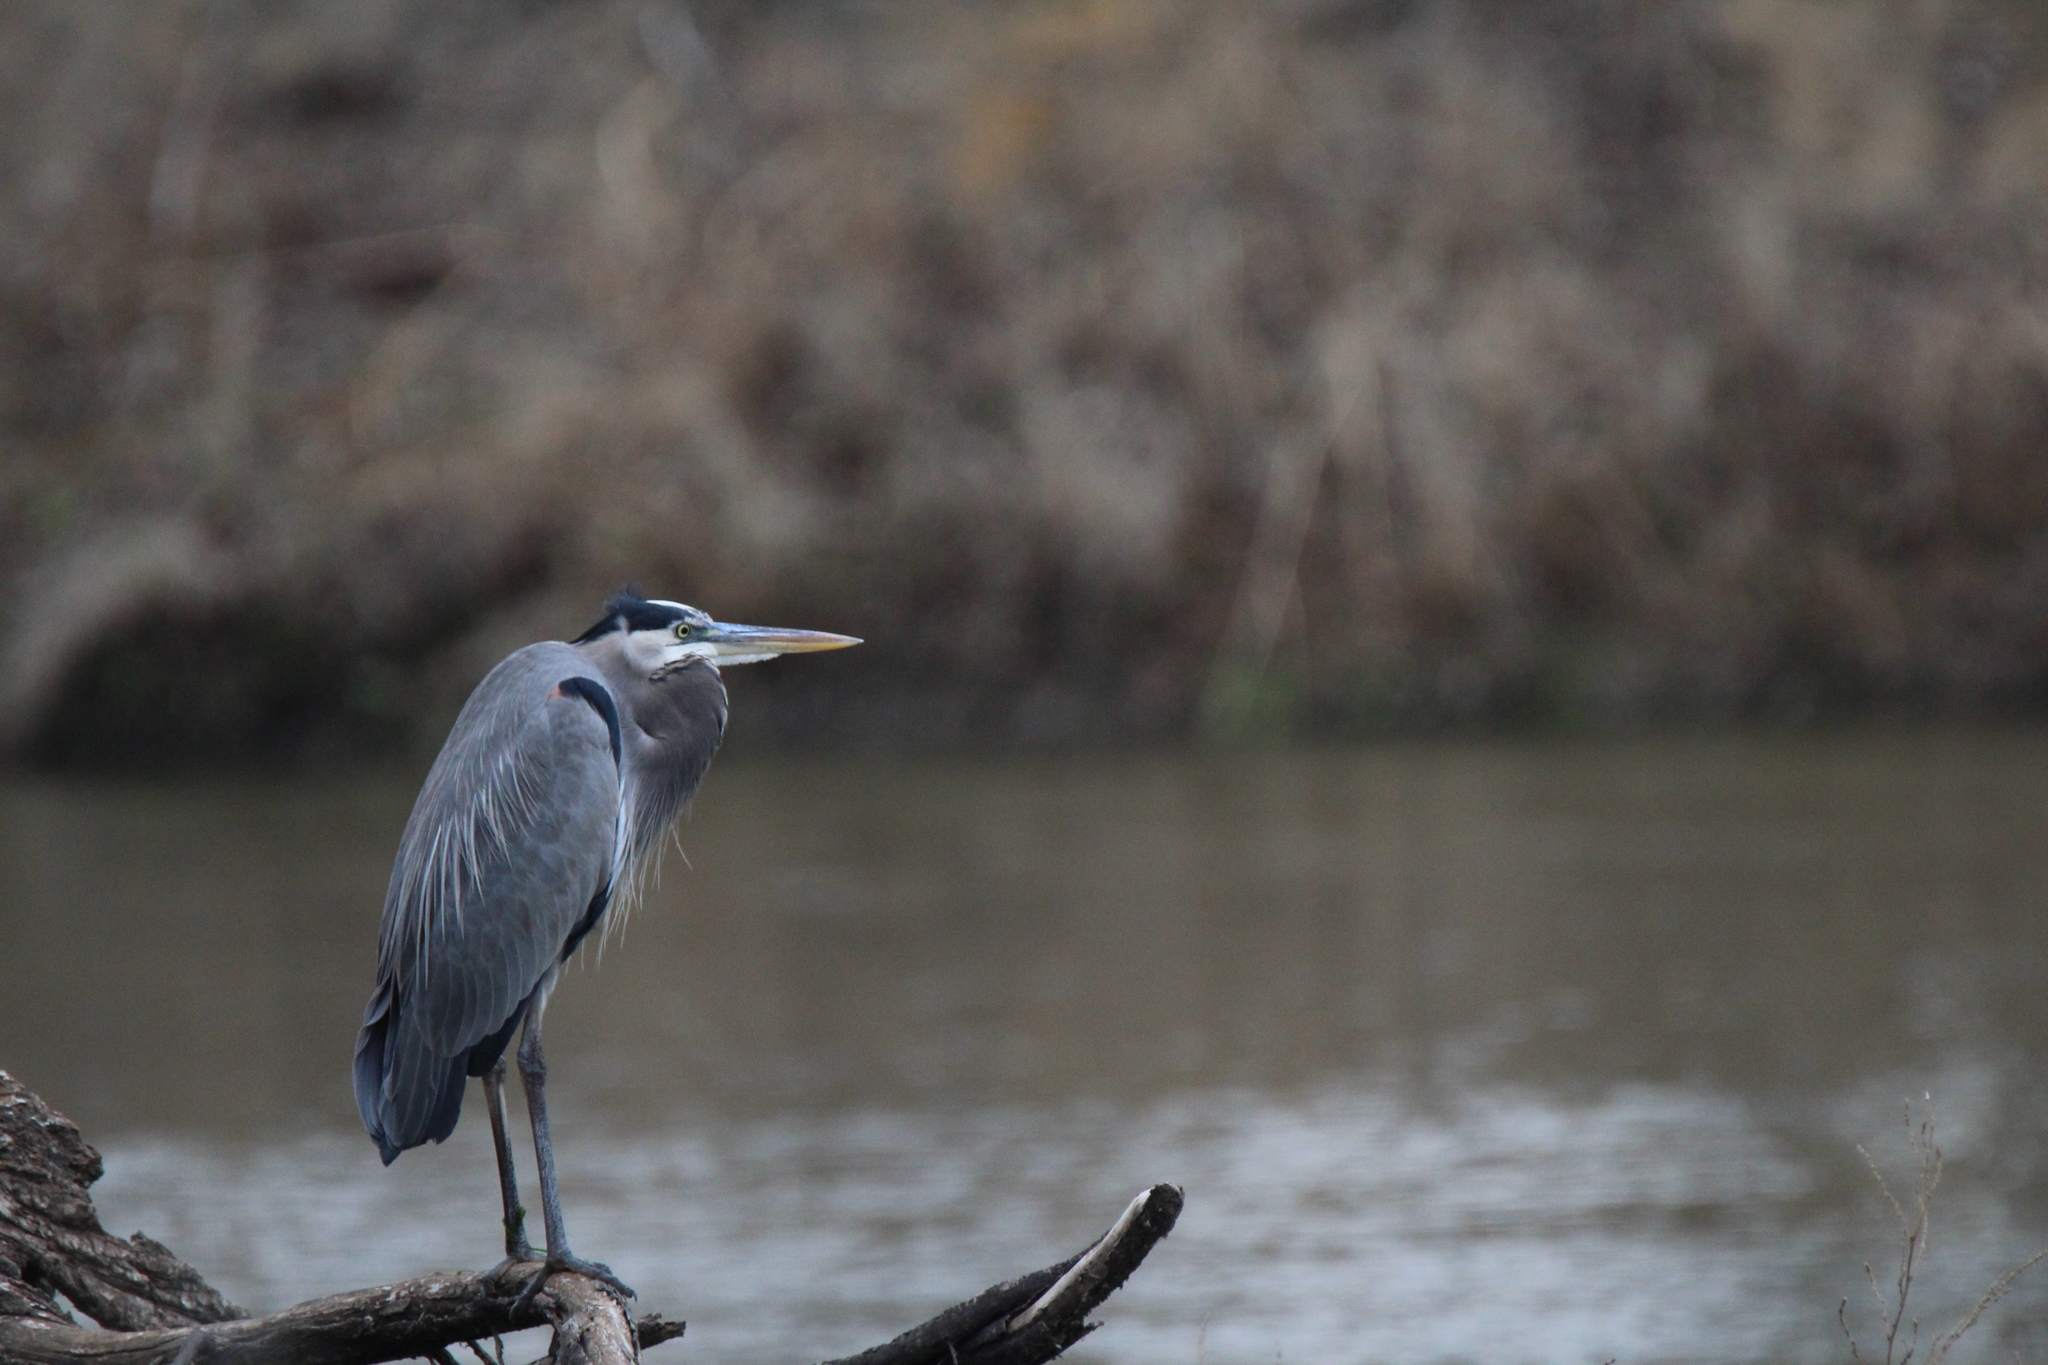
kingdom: Animalia
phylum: Chordata
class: Aves
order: Pelecaniformes
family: Ardeidae
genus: Ardea
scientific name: Ardea herodias
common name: Great blue heron
